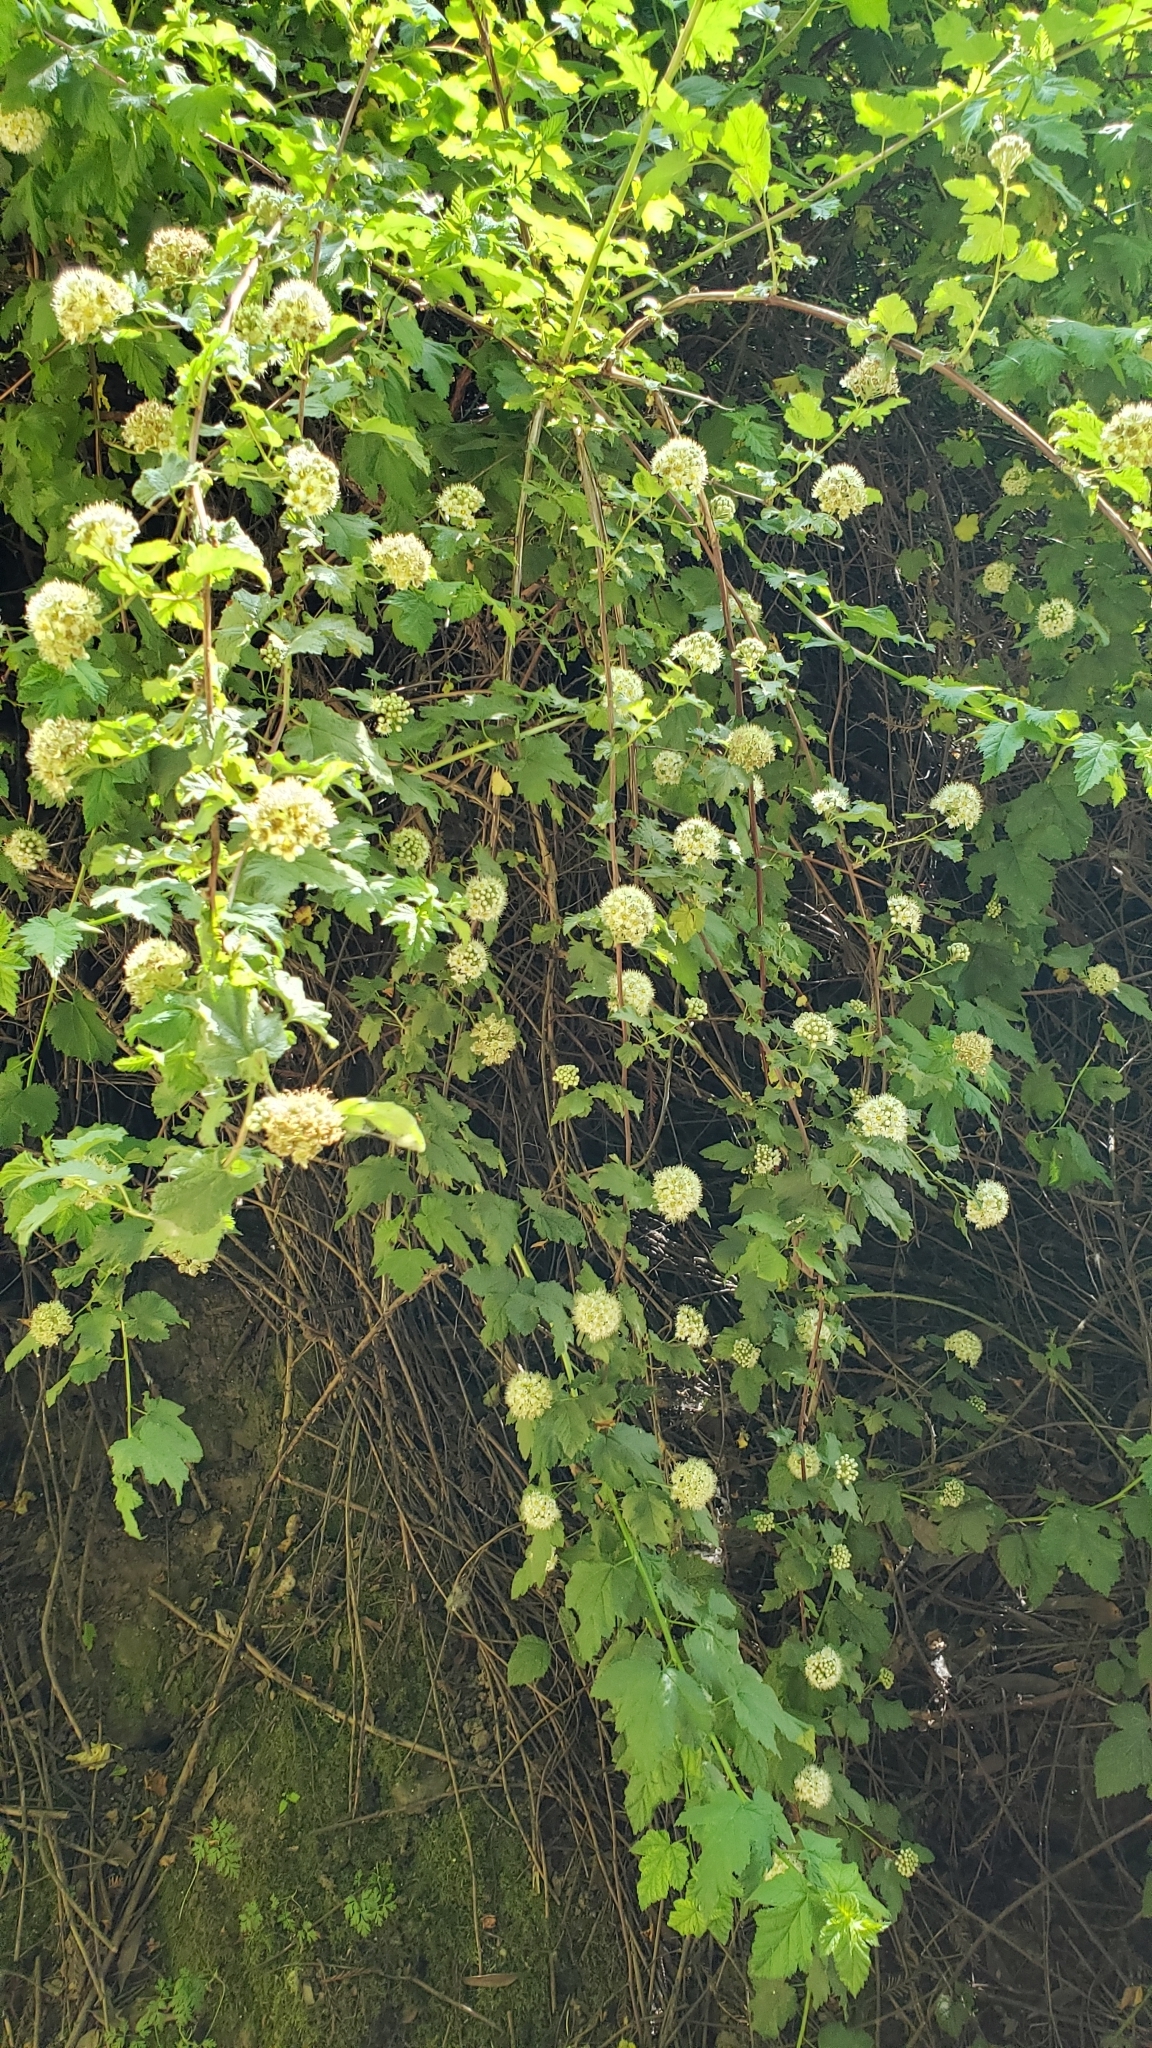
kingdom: Plantae
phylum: Tracheophyta
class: Magnoliopsida
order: Rosales
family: Rosaceae
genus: Physocarpus
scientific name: Physocarpus capitatus
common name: Pacific ninebark
